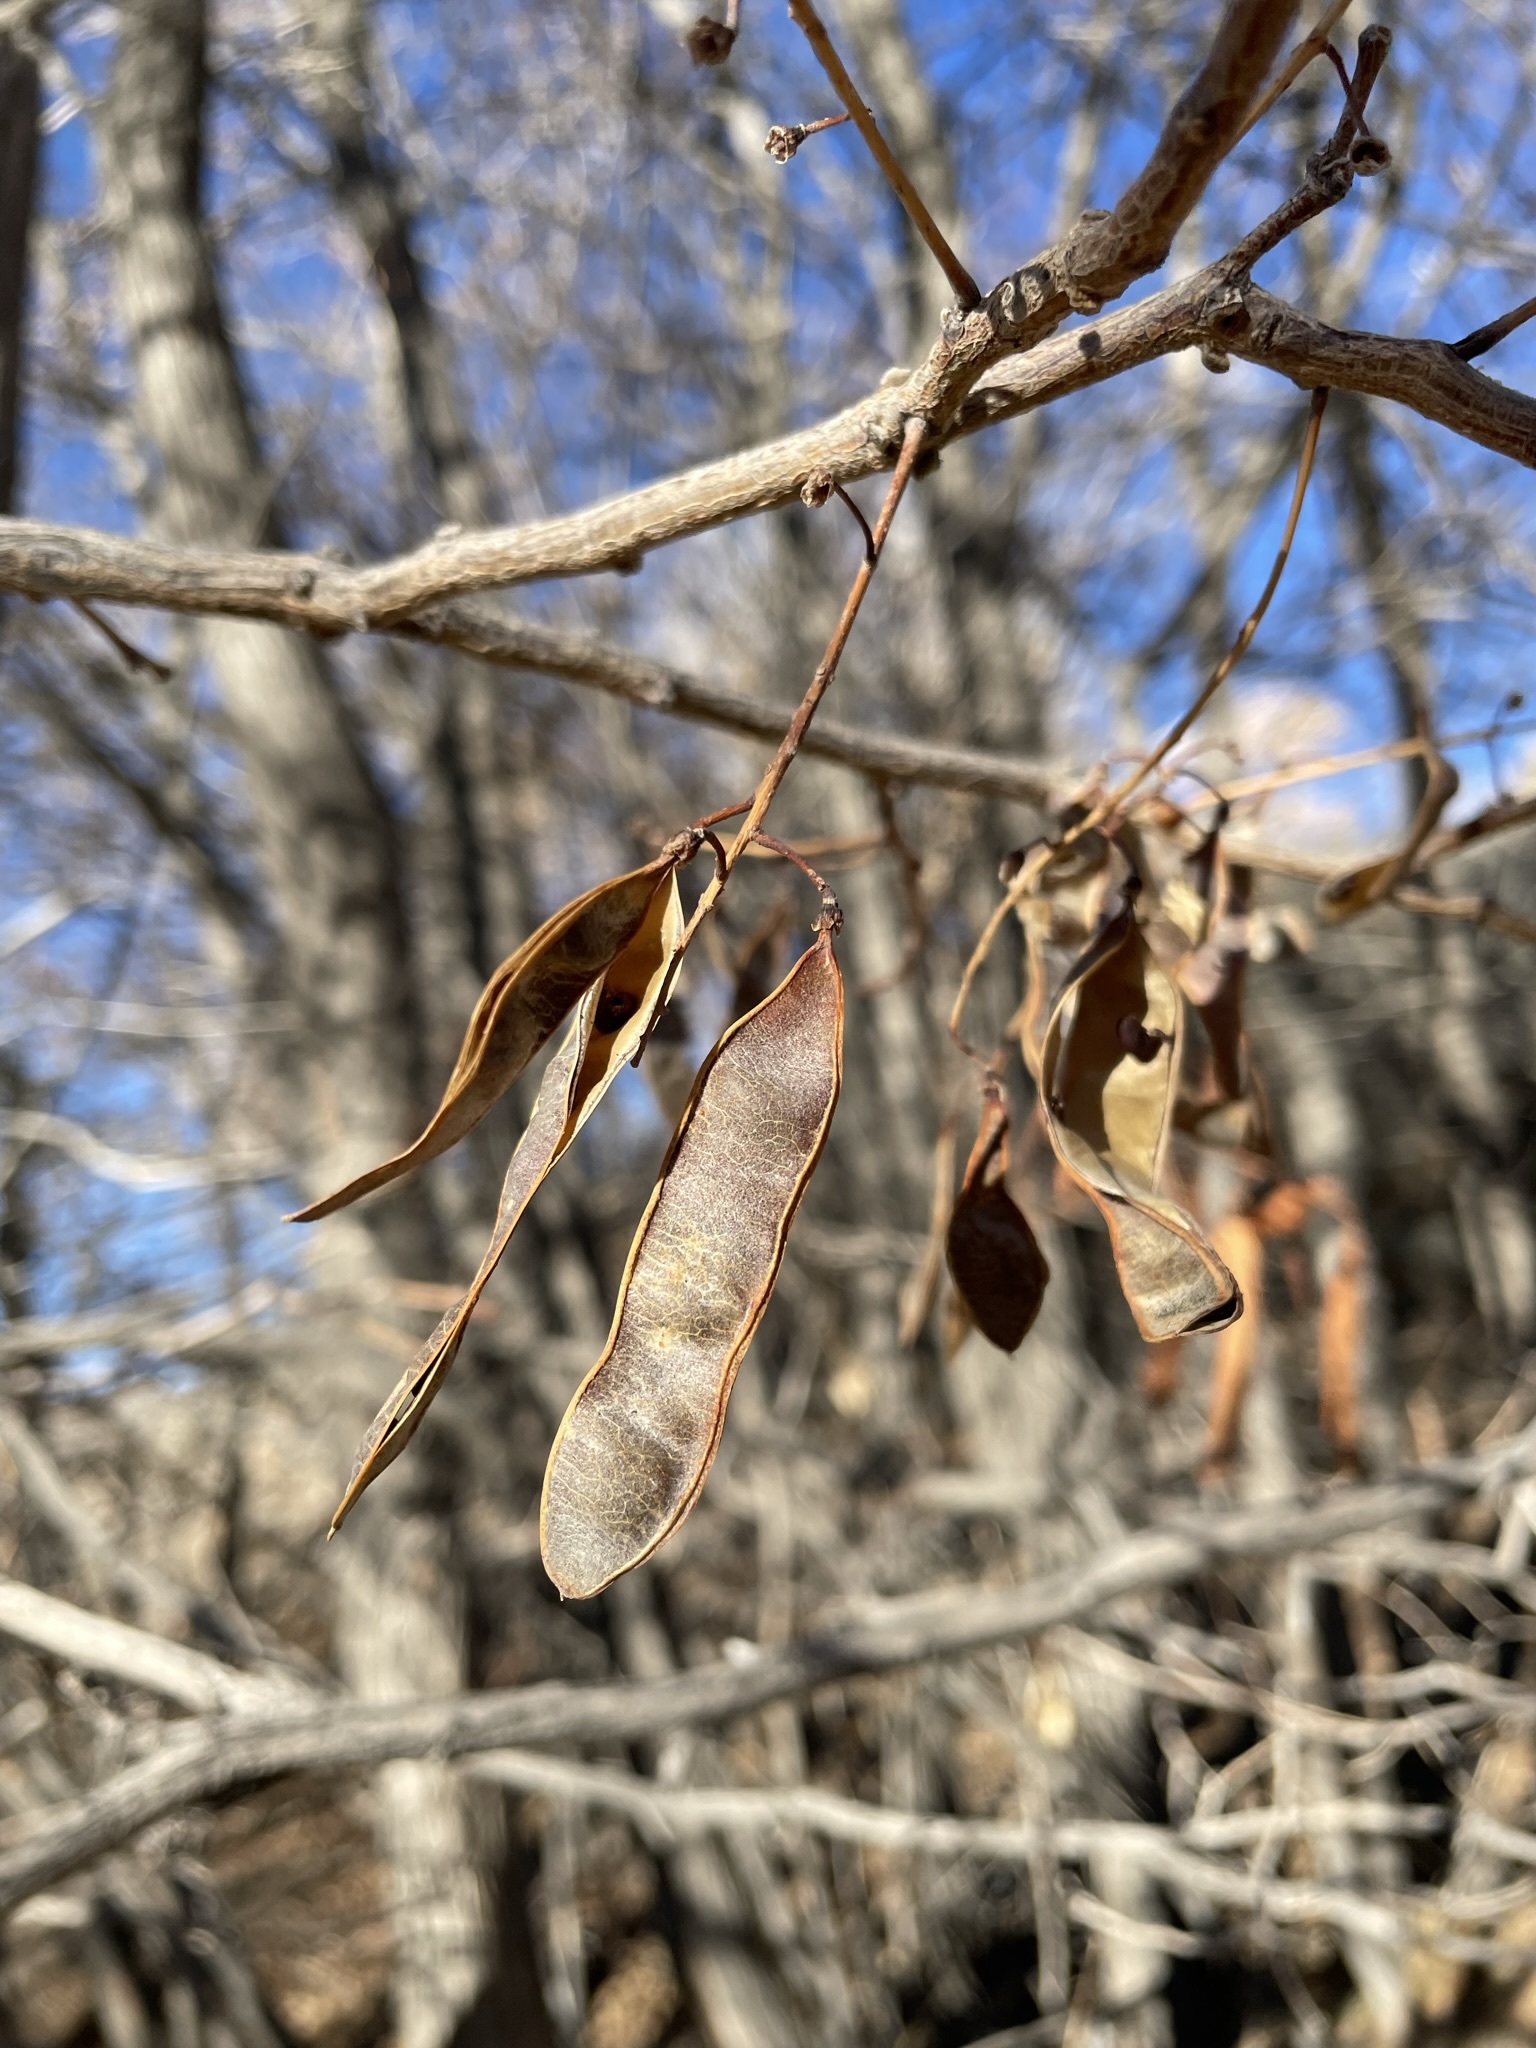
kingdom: Plantae
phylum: Tracheophyta
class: Magnoliopsida
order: Fabales
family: Fabaceae
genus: Robinia
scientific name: Robinia pseudoacacia
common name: Black locust
